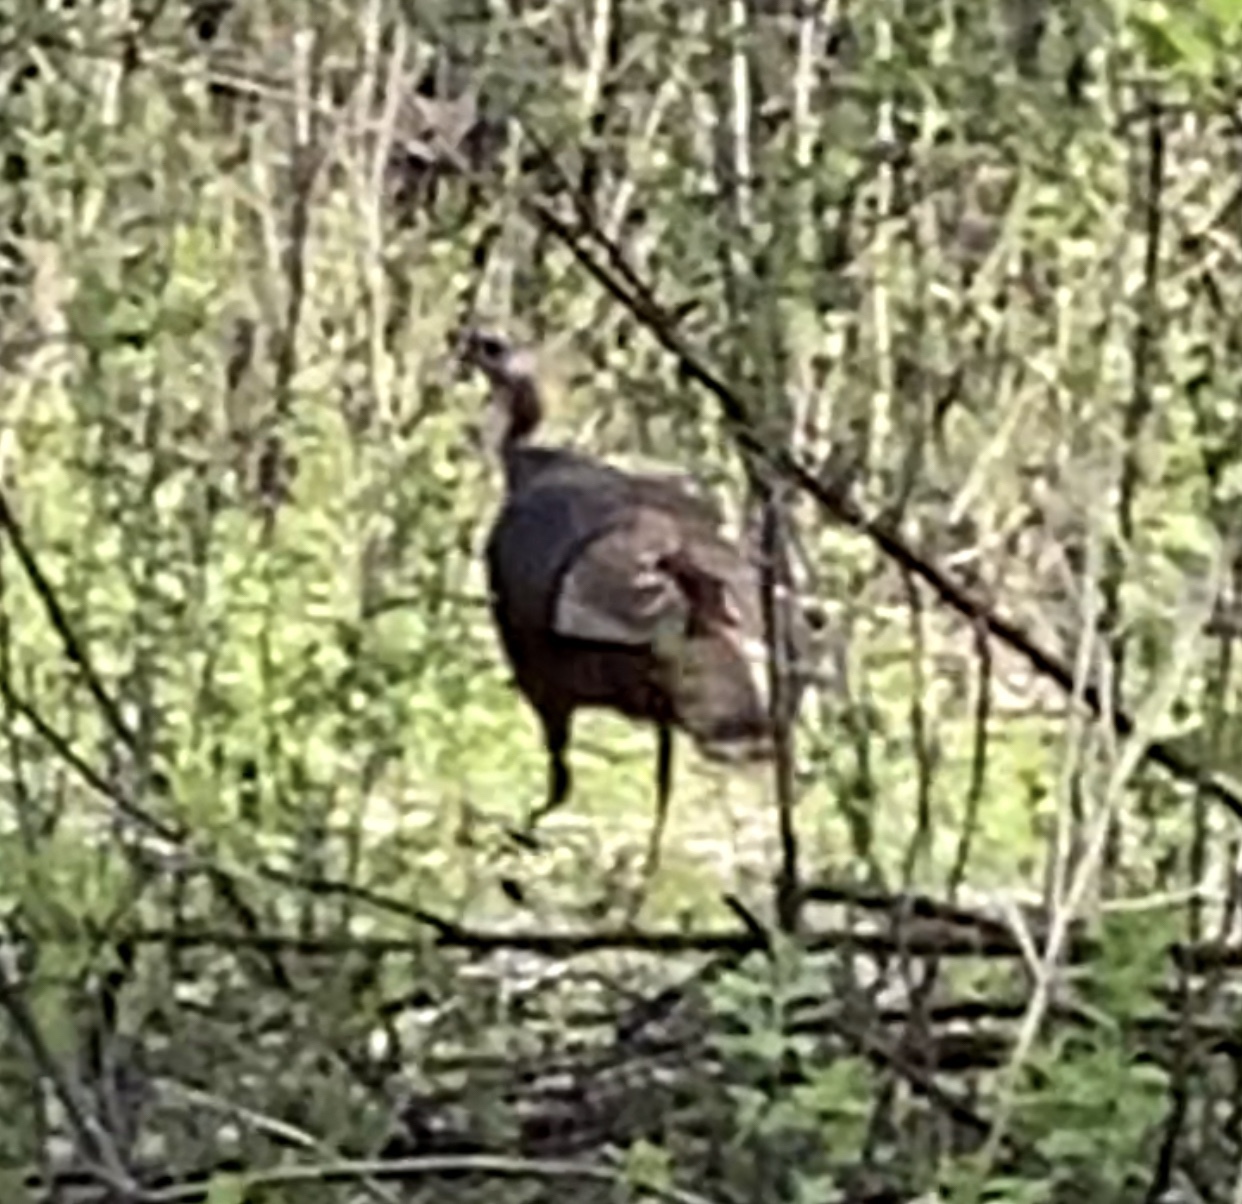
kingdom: Animalia
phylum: Chordata
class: Aves
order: Galliformes
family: Phasianidae
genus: Meleagris
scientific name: Meleagris gallopavo
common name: Wild turkey
